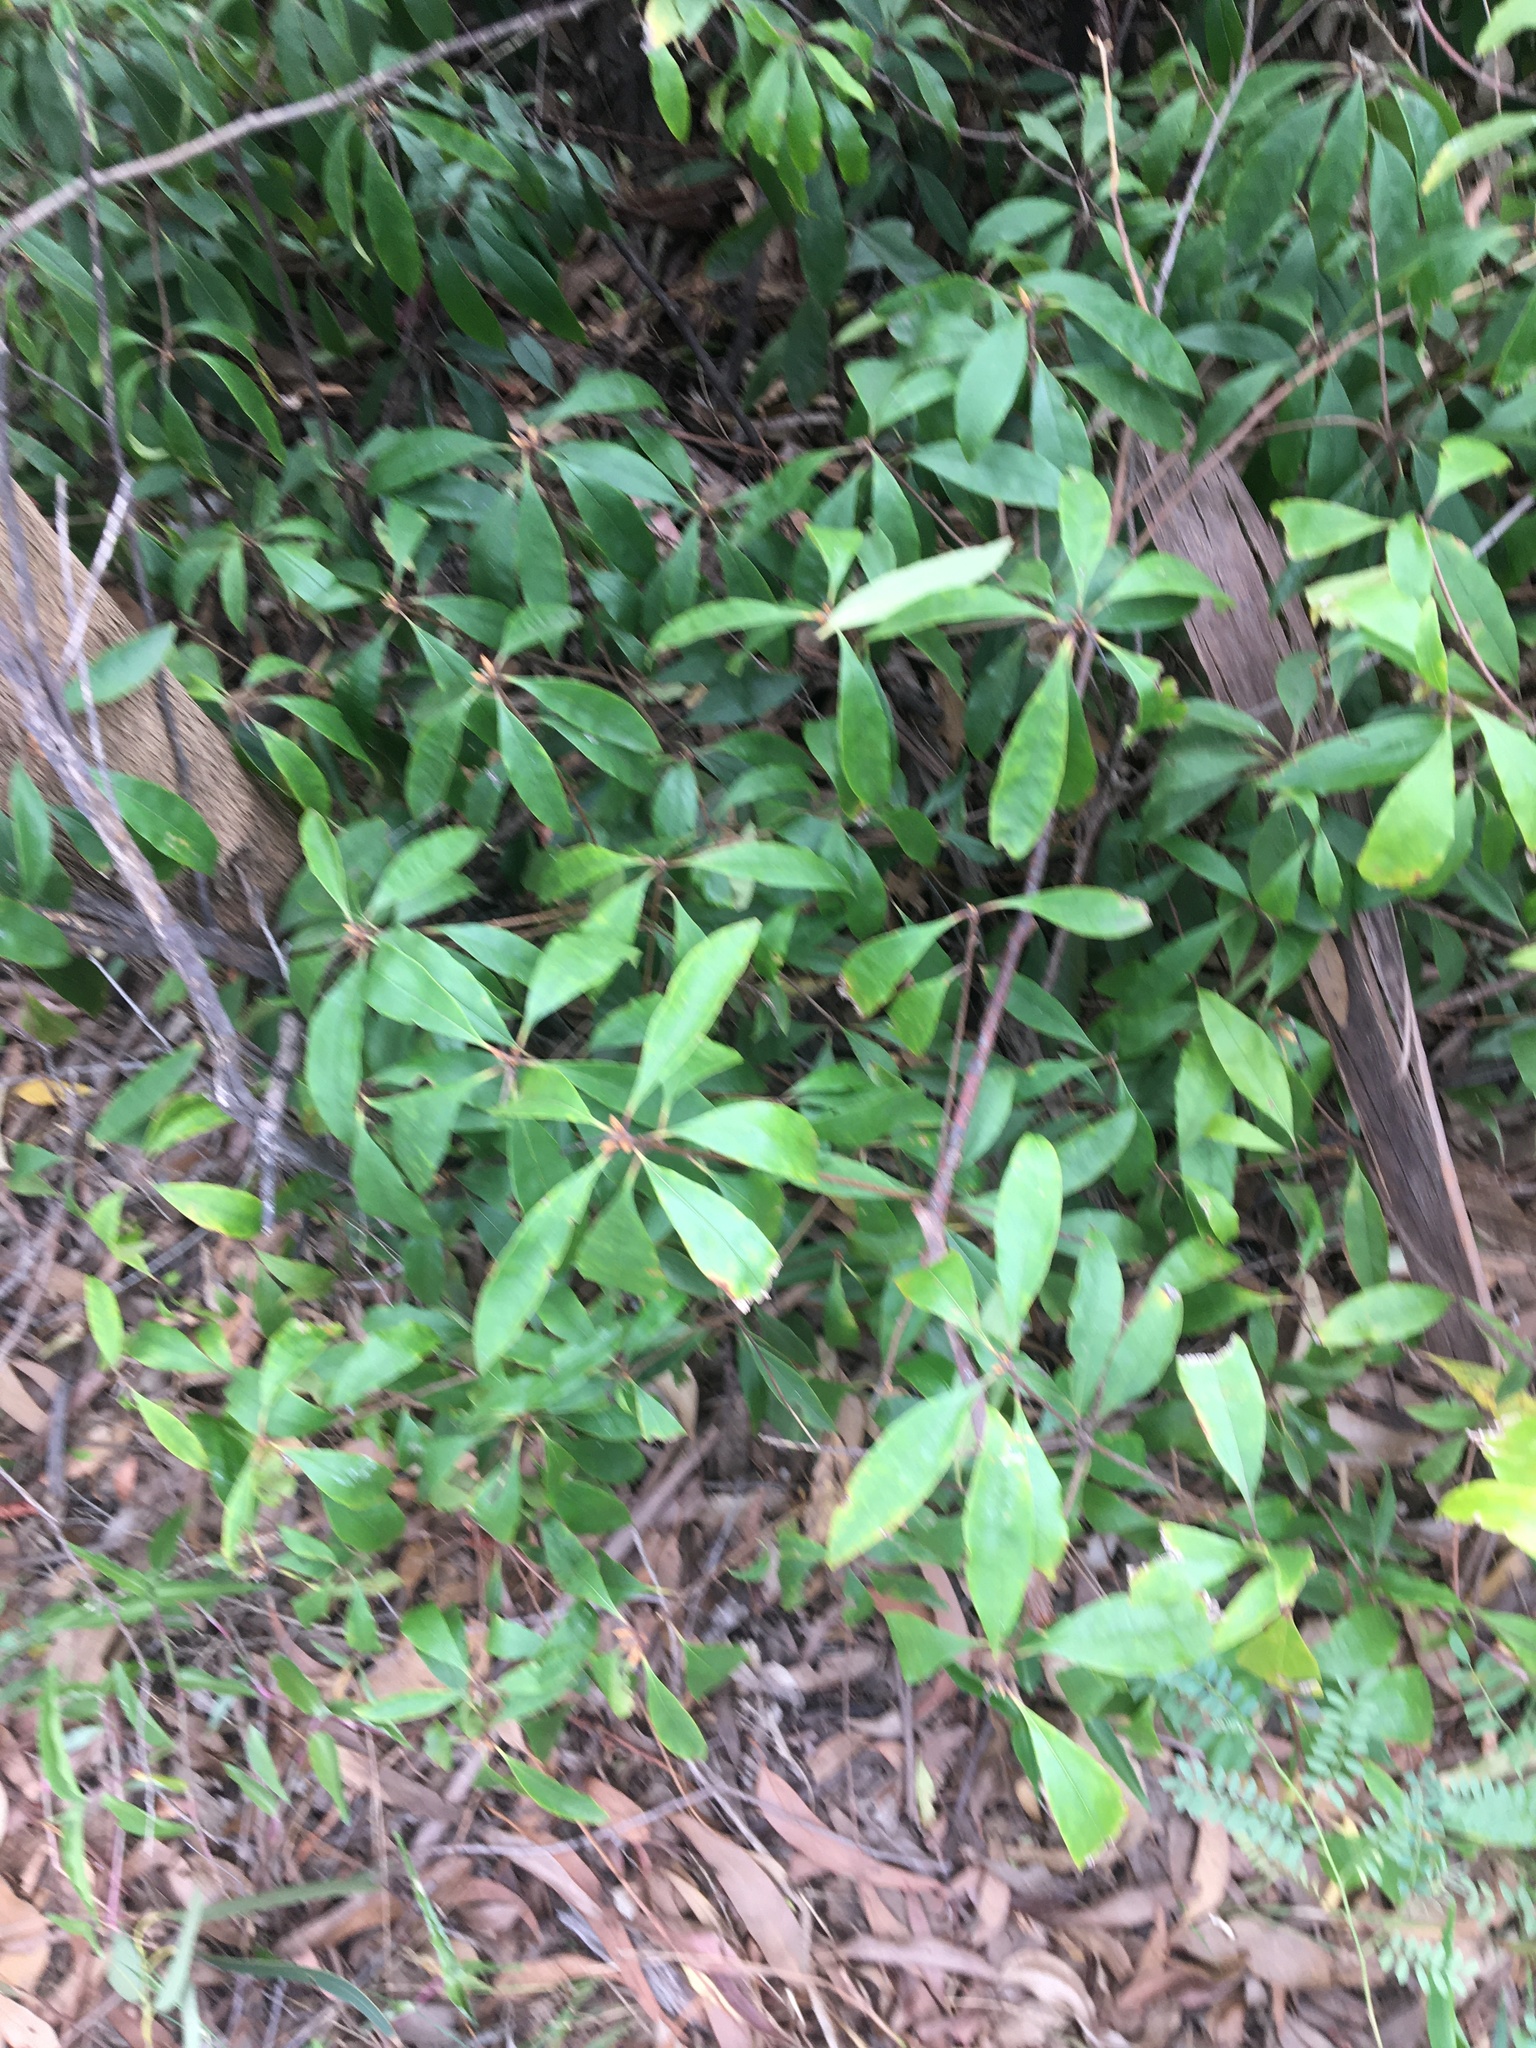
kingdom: Plantae
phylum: Tracheophyta
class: Magnoliopsida
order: Apiales
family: Pittosporaceae
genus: Pittosporum
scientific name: Pittosporum revolutum
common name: Brisbane-laurel
